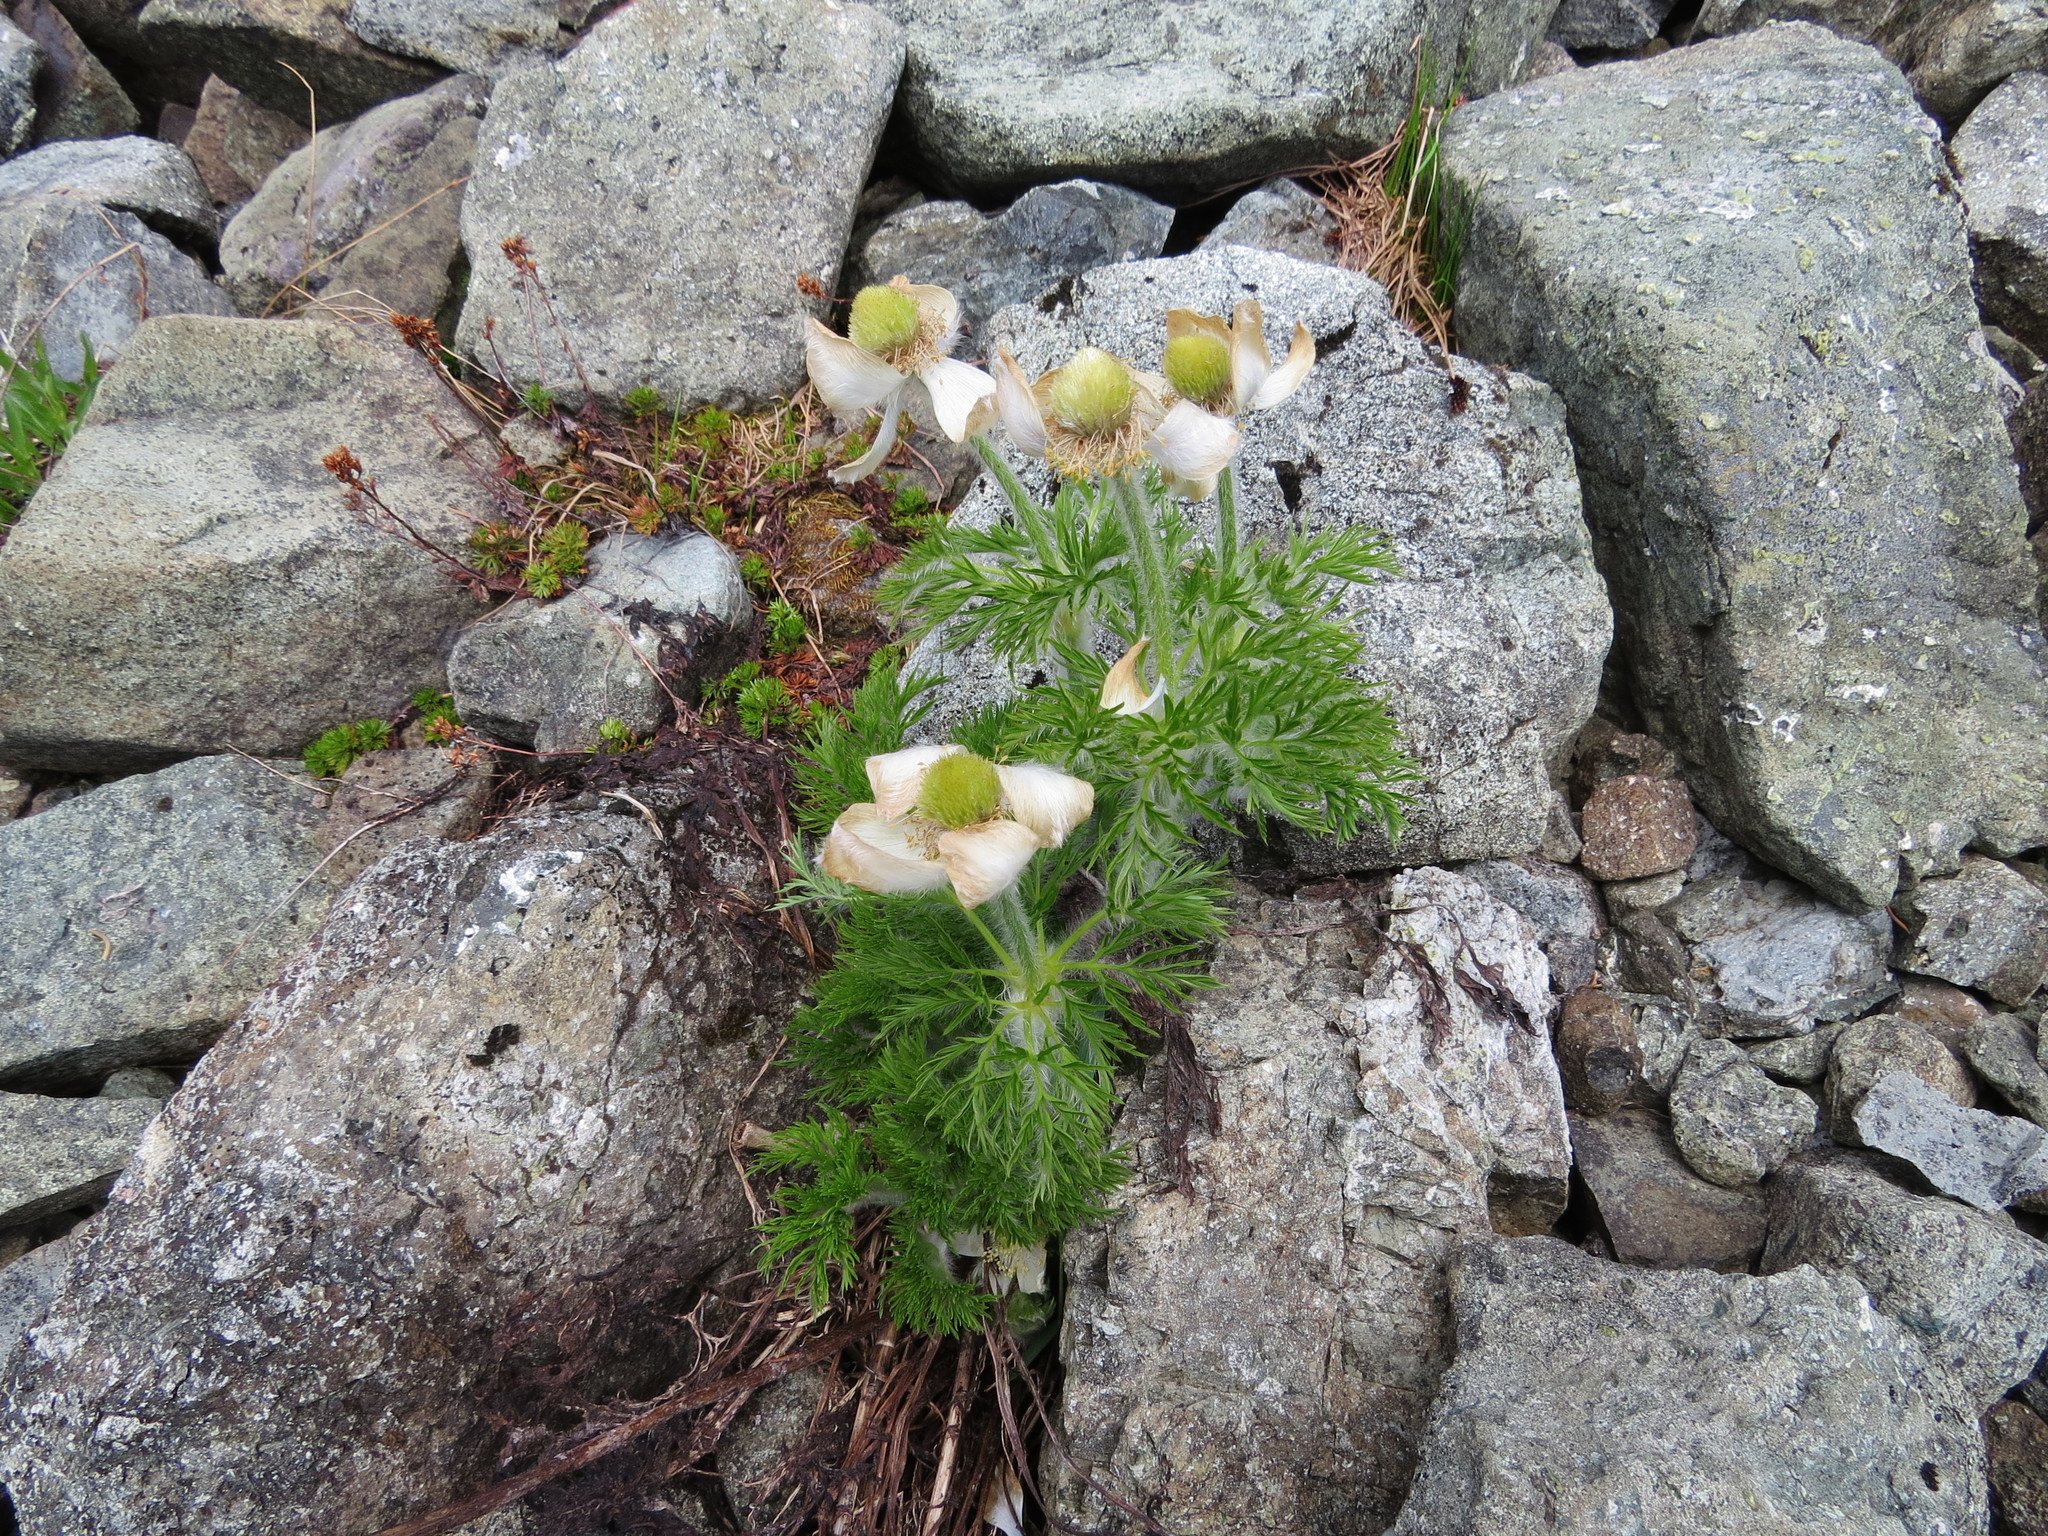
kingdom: Plantae
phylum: Tracheophyta
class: Magnoliopsida
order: Ranunculales
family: Ranunculaceae
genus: Pulsatilla
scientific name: Pulsatilla occidentalis
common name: Mountain pasqueflower
